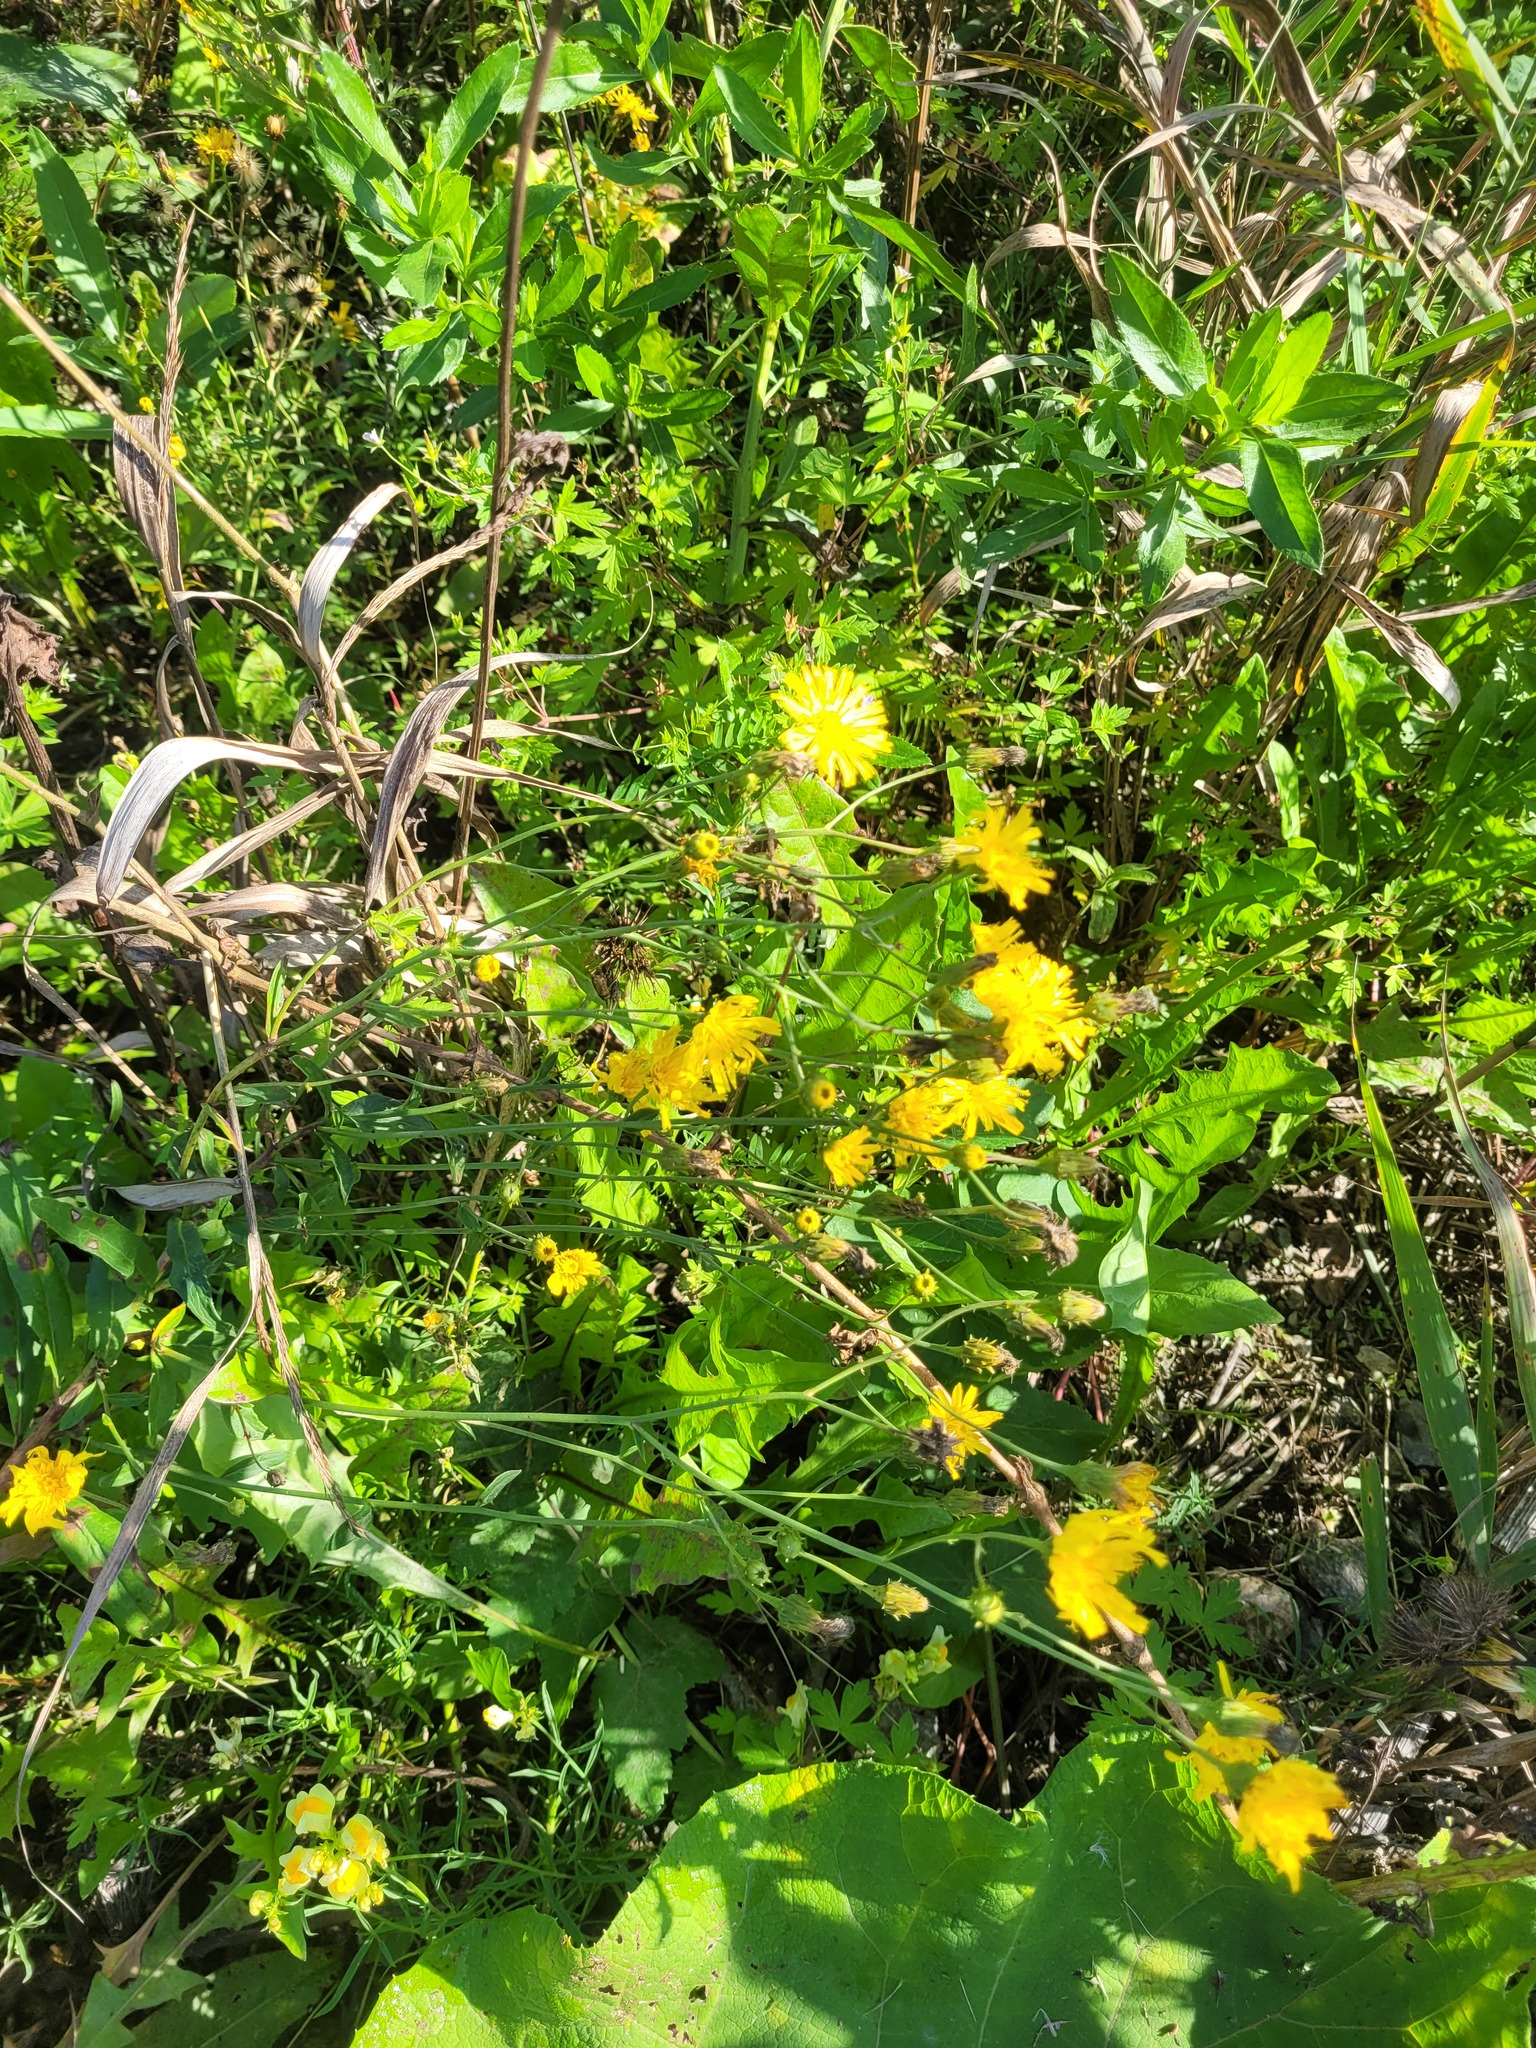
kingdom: Plantae
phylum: Tracheophyta
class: Magnoliopsida
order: Asterales
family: Asteraceae
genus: Hieracium
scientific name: Hieracium umbellatum
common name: Northern hawkweed
